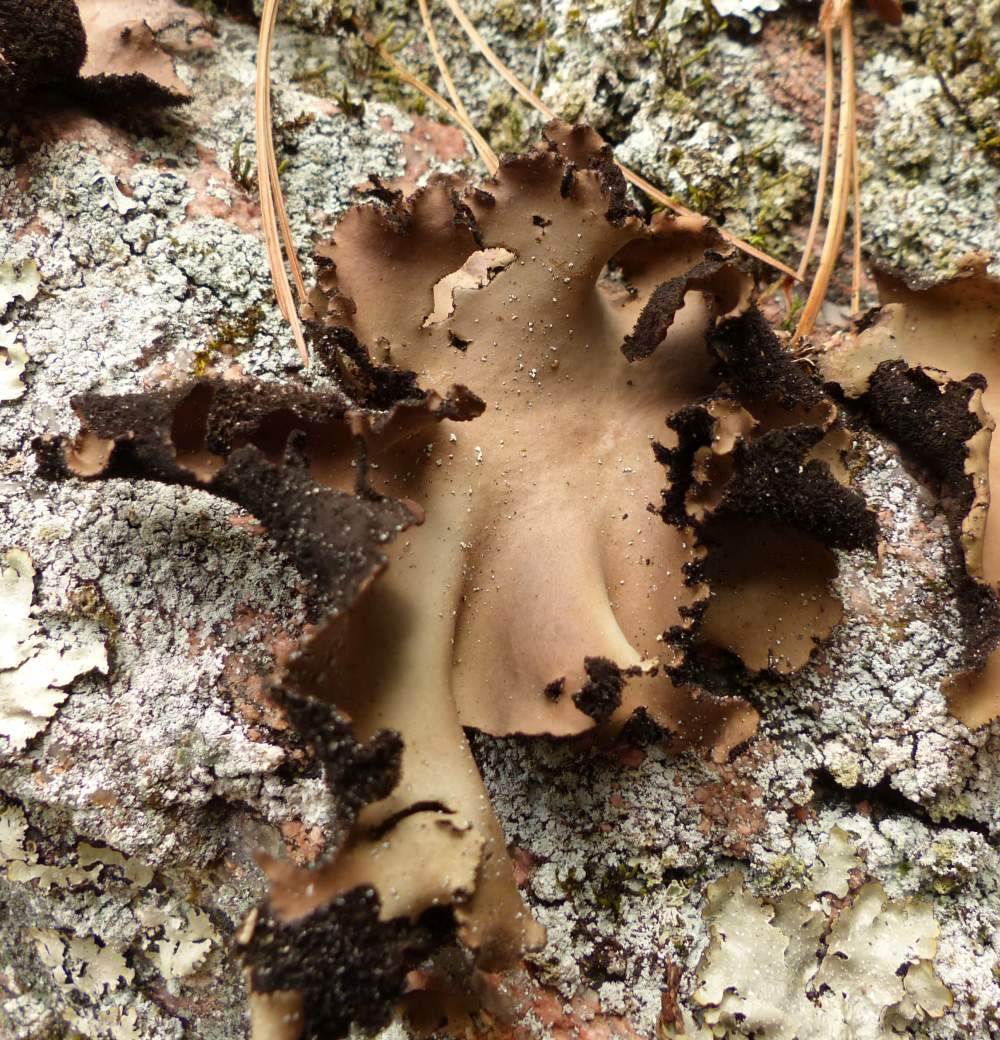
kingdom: Fungi
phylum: Ascomycota
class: Lecanoromycetes
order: Umbilicariales
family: Umbilicariaceae
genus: Umbilicaria
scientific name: Umbilicaria mammulata
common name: Smooth rock tripe
